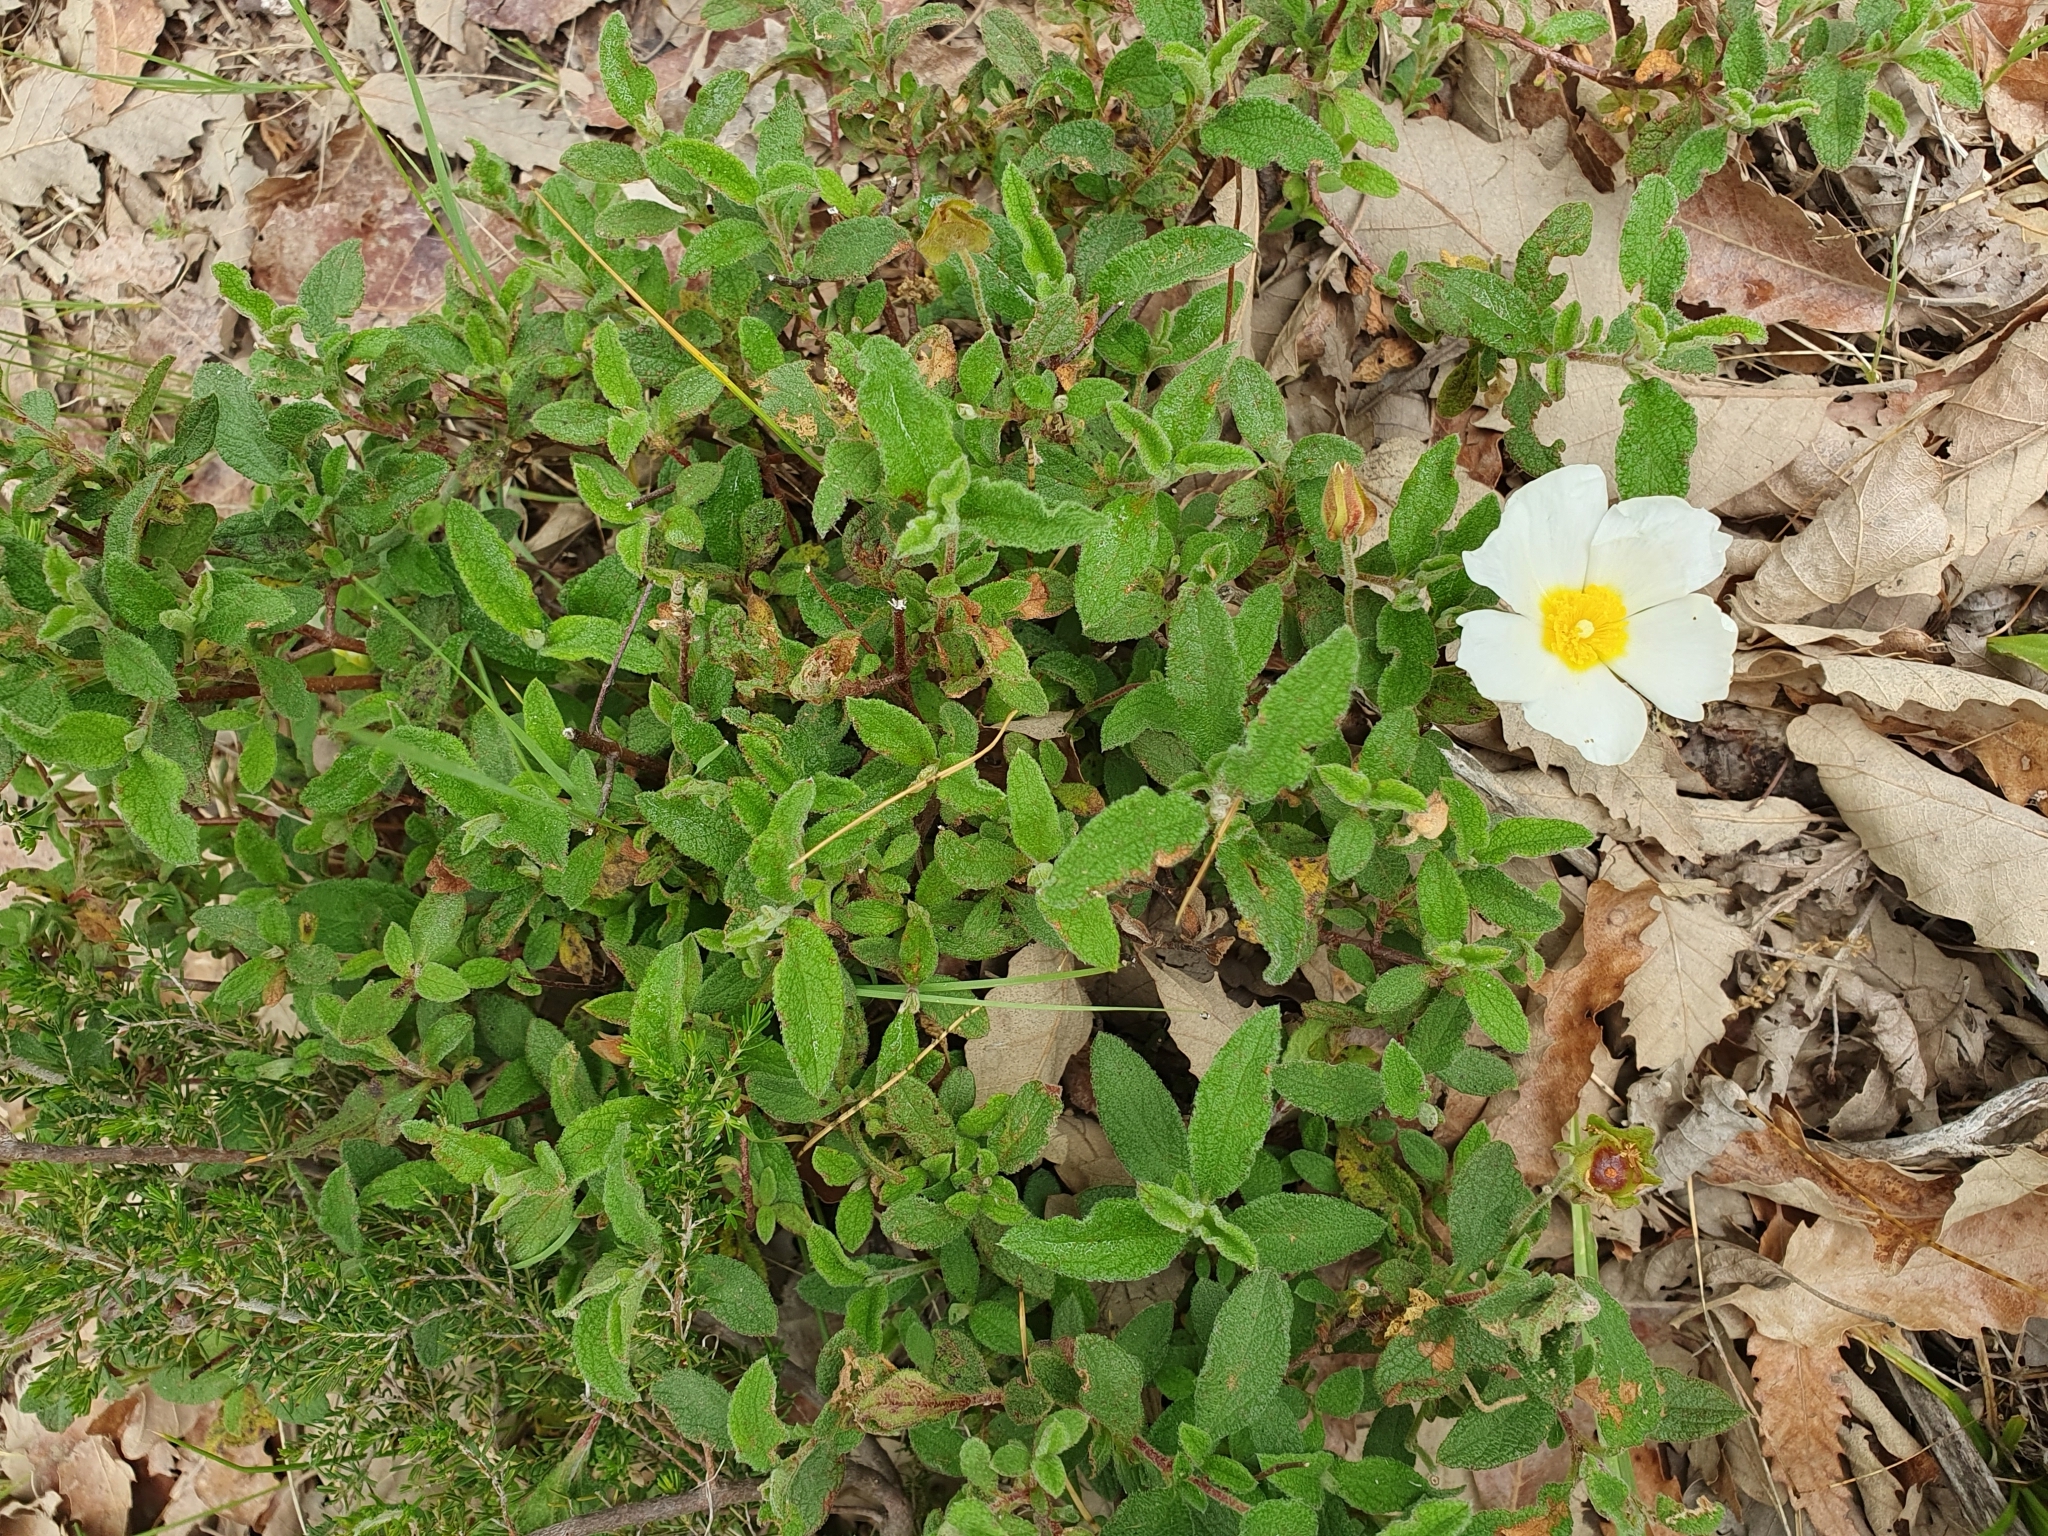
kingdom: Plantae
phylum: Tracheophyta
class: Magnoliopsida
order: Malvales
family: Cistaceae
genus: Cistus
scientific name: Cistus salviifolius
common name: Salvia cistus
